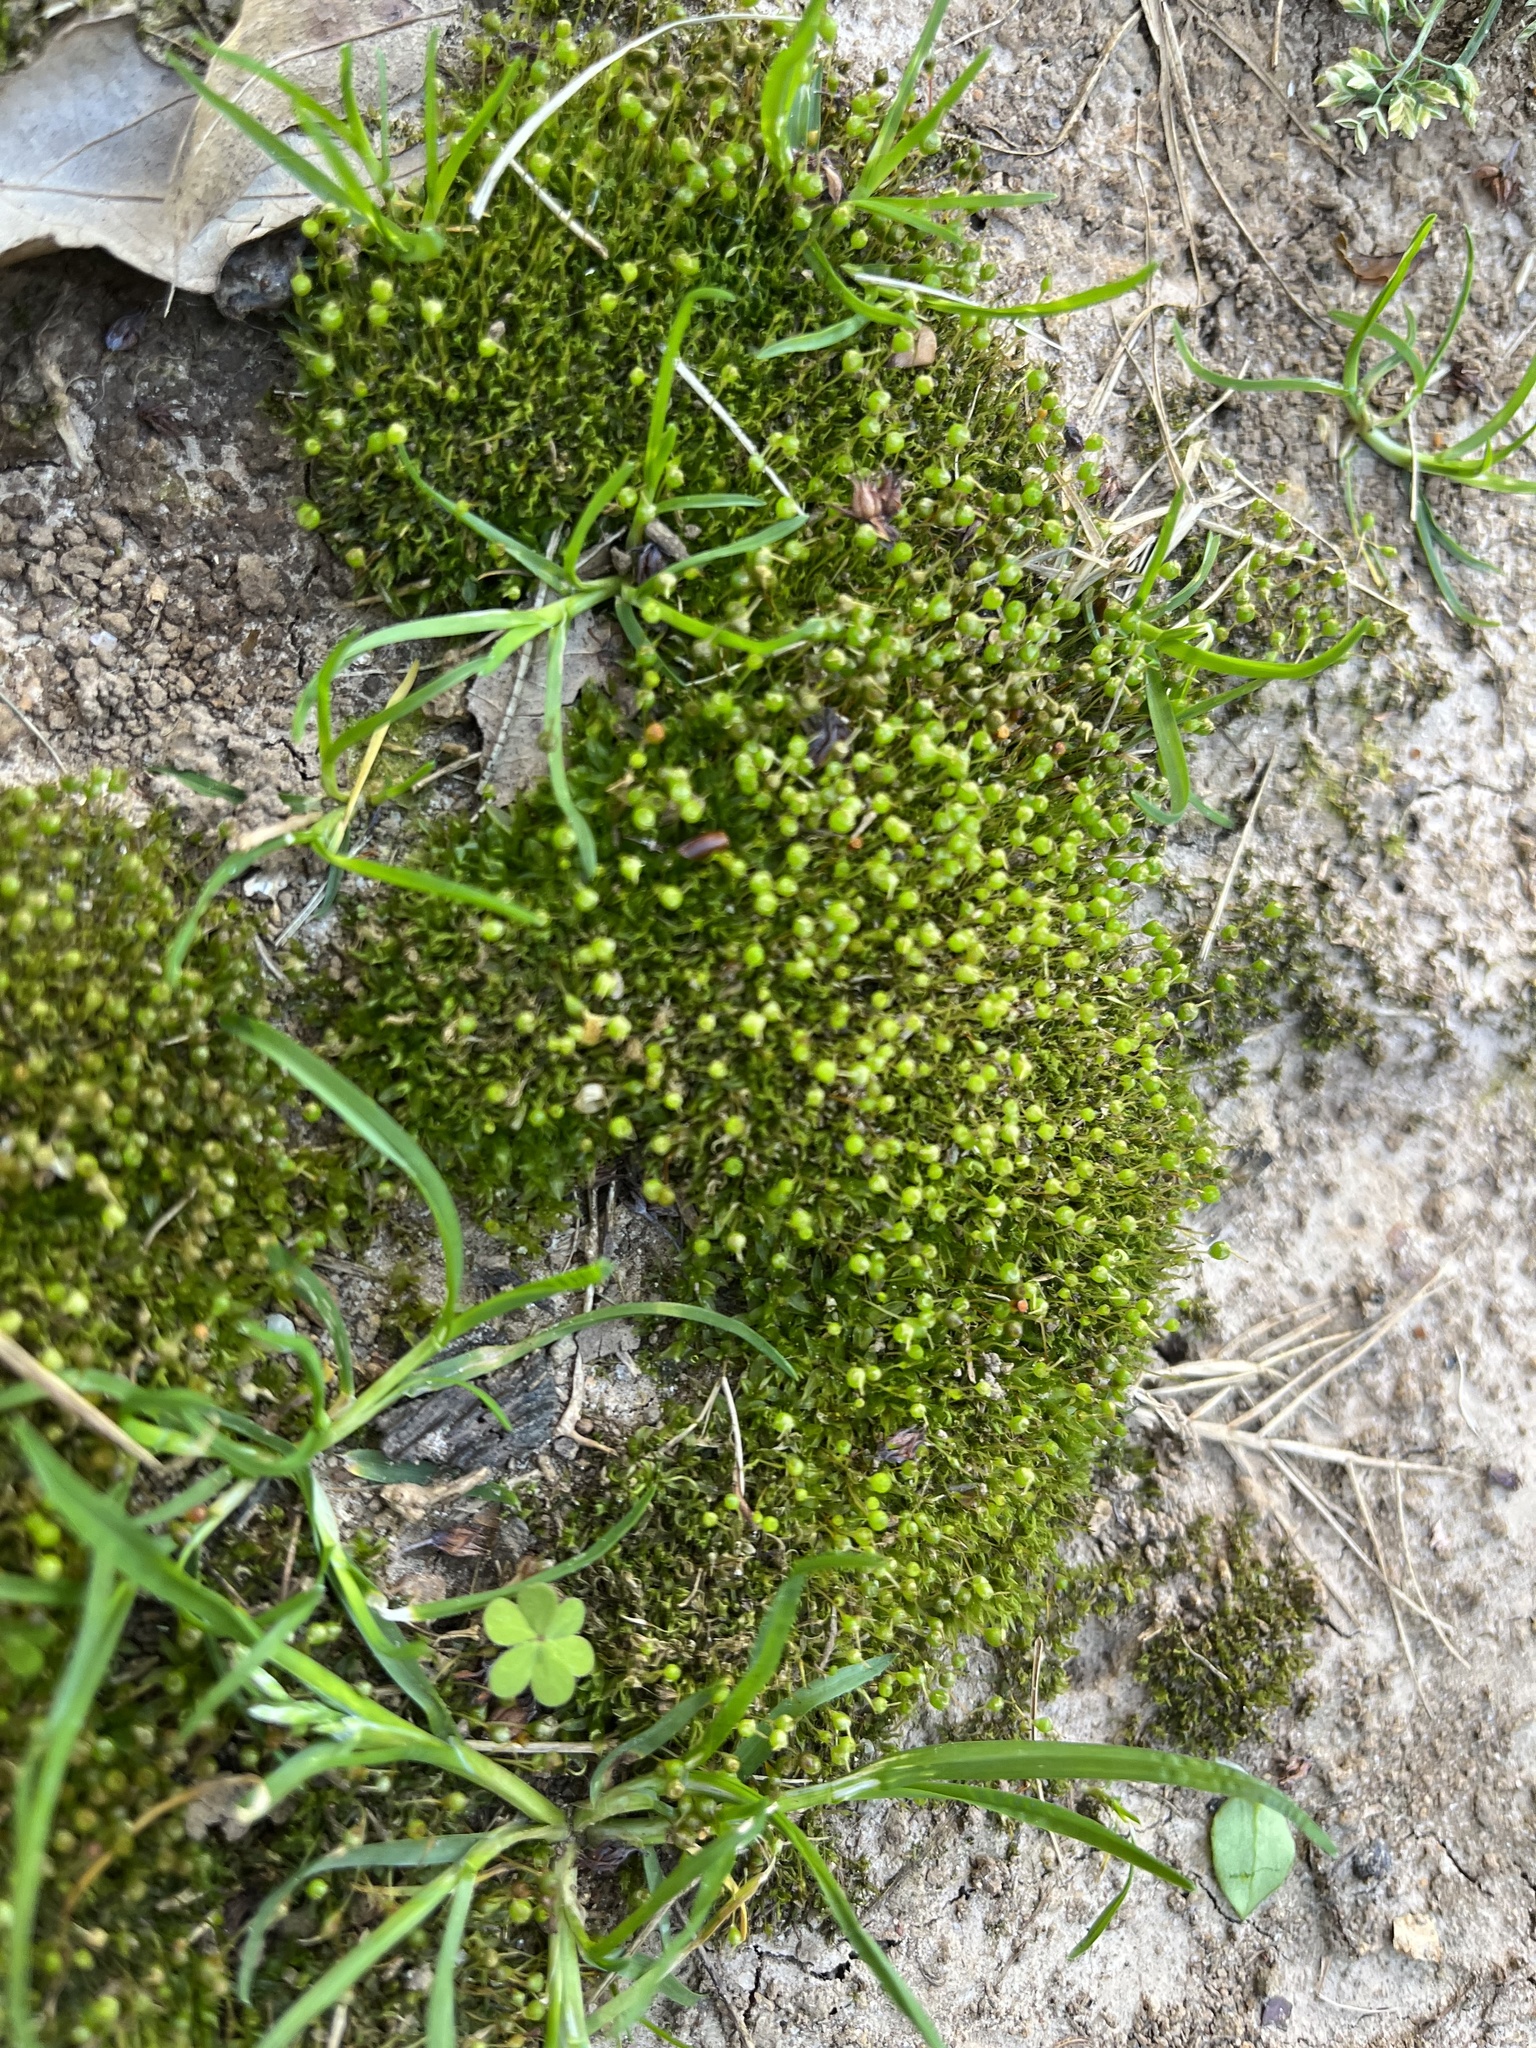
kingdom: Plantae
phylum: Bryophyta
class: Bryopsida
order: Funariales
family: Funariaceae
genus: Physcomitrium
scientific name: Physcomitrium pyriforme
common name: Common bladder-moss
